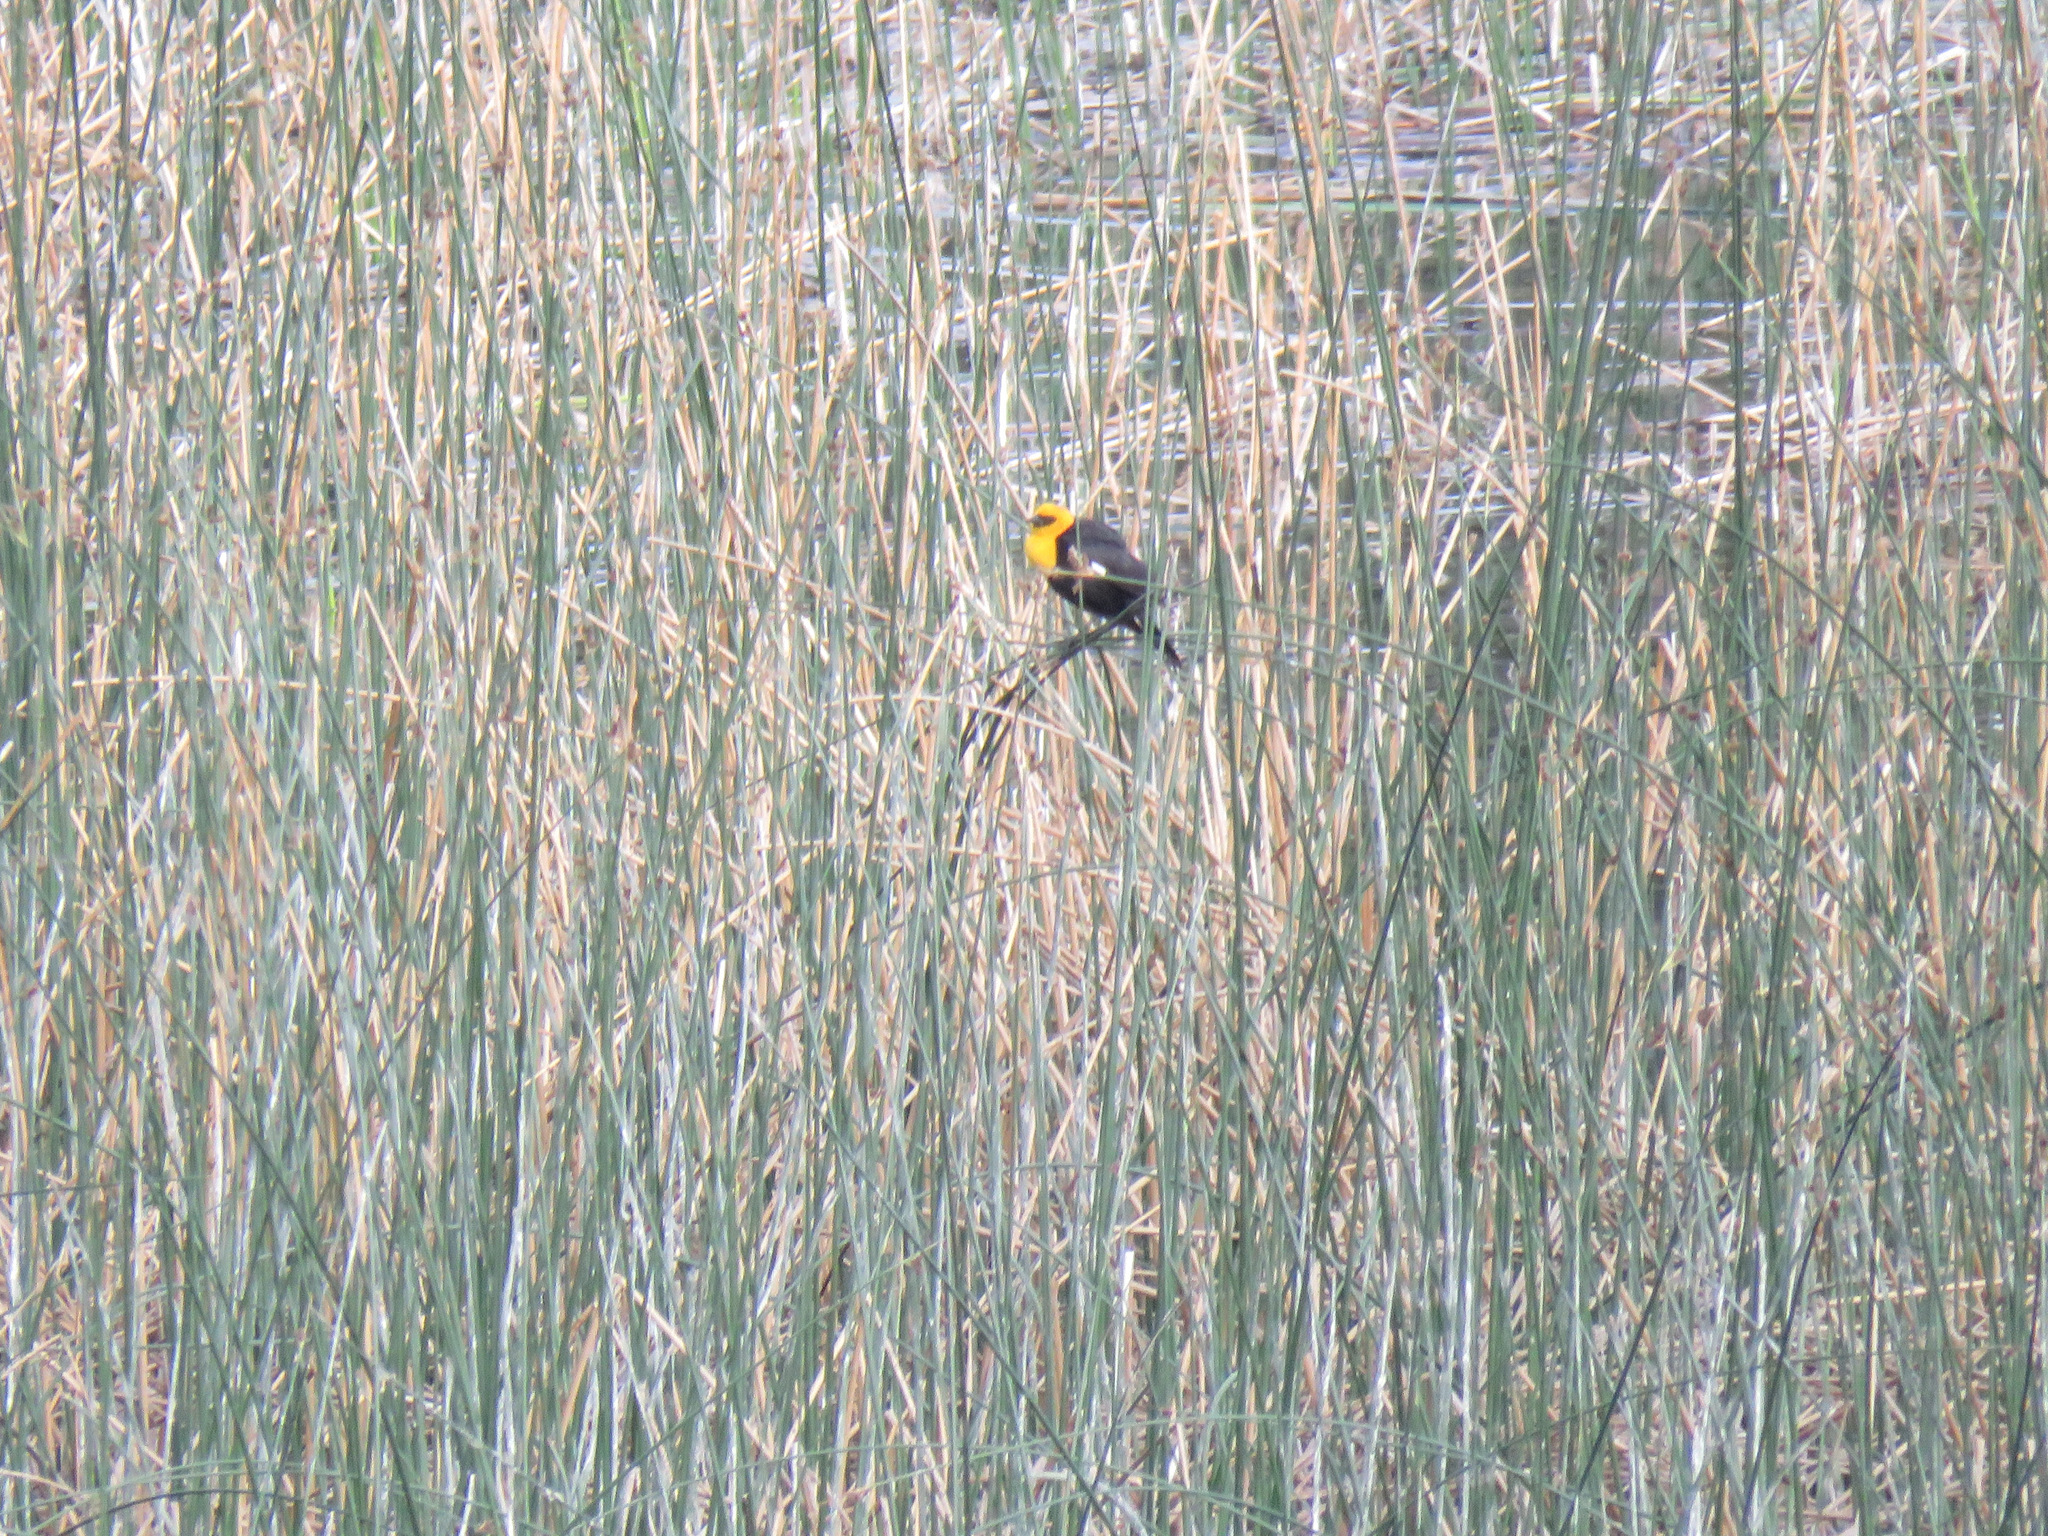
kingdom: Animalia
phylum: Chordata
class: Aves
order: Passeriformes
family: Icteridae
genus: Xanthocephalus
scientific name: Xanthocephalus xanthocephalus
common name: Yellow-headed blackbird
